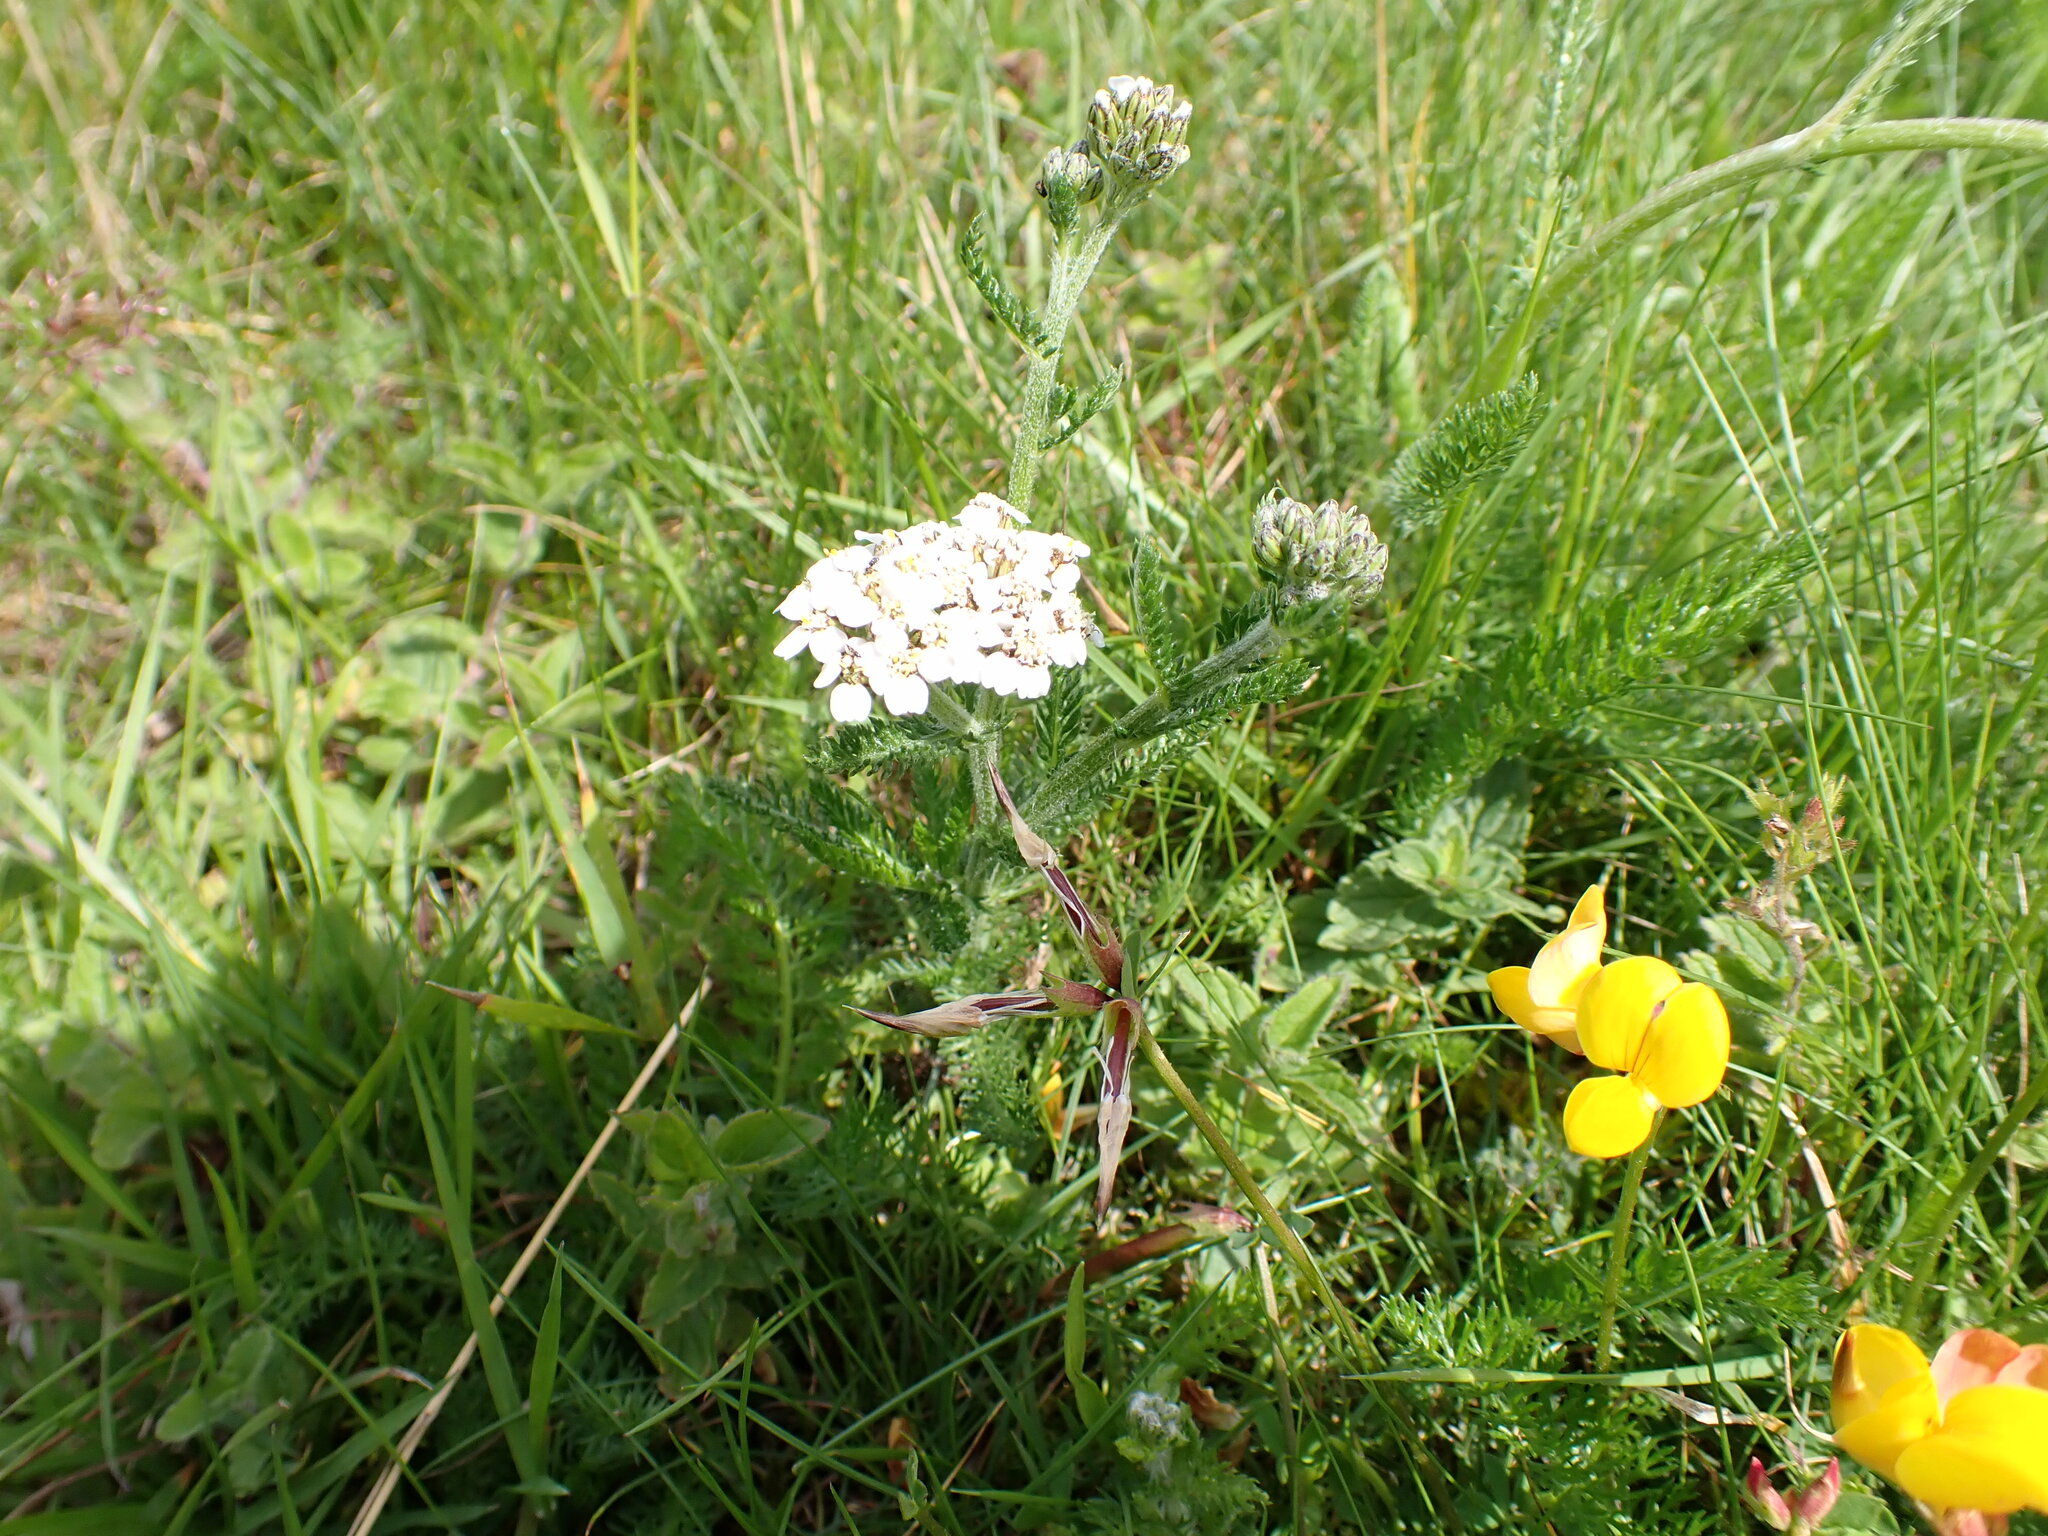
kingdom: Plantae
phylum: Tracheophyta
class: Magnoliopsida
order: Asterales
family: Asteraceae
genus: Achillea
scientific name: Achillea millefolium
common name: Yarrow
